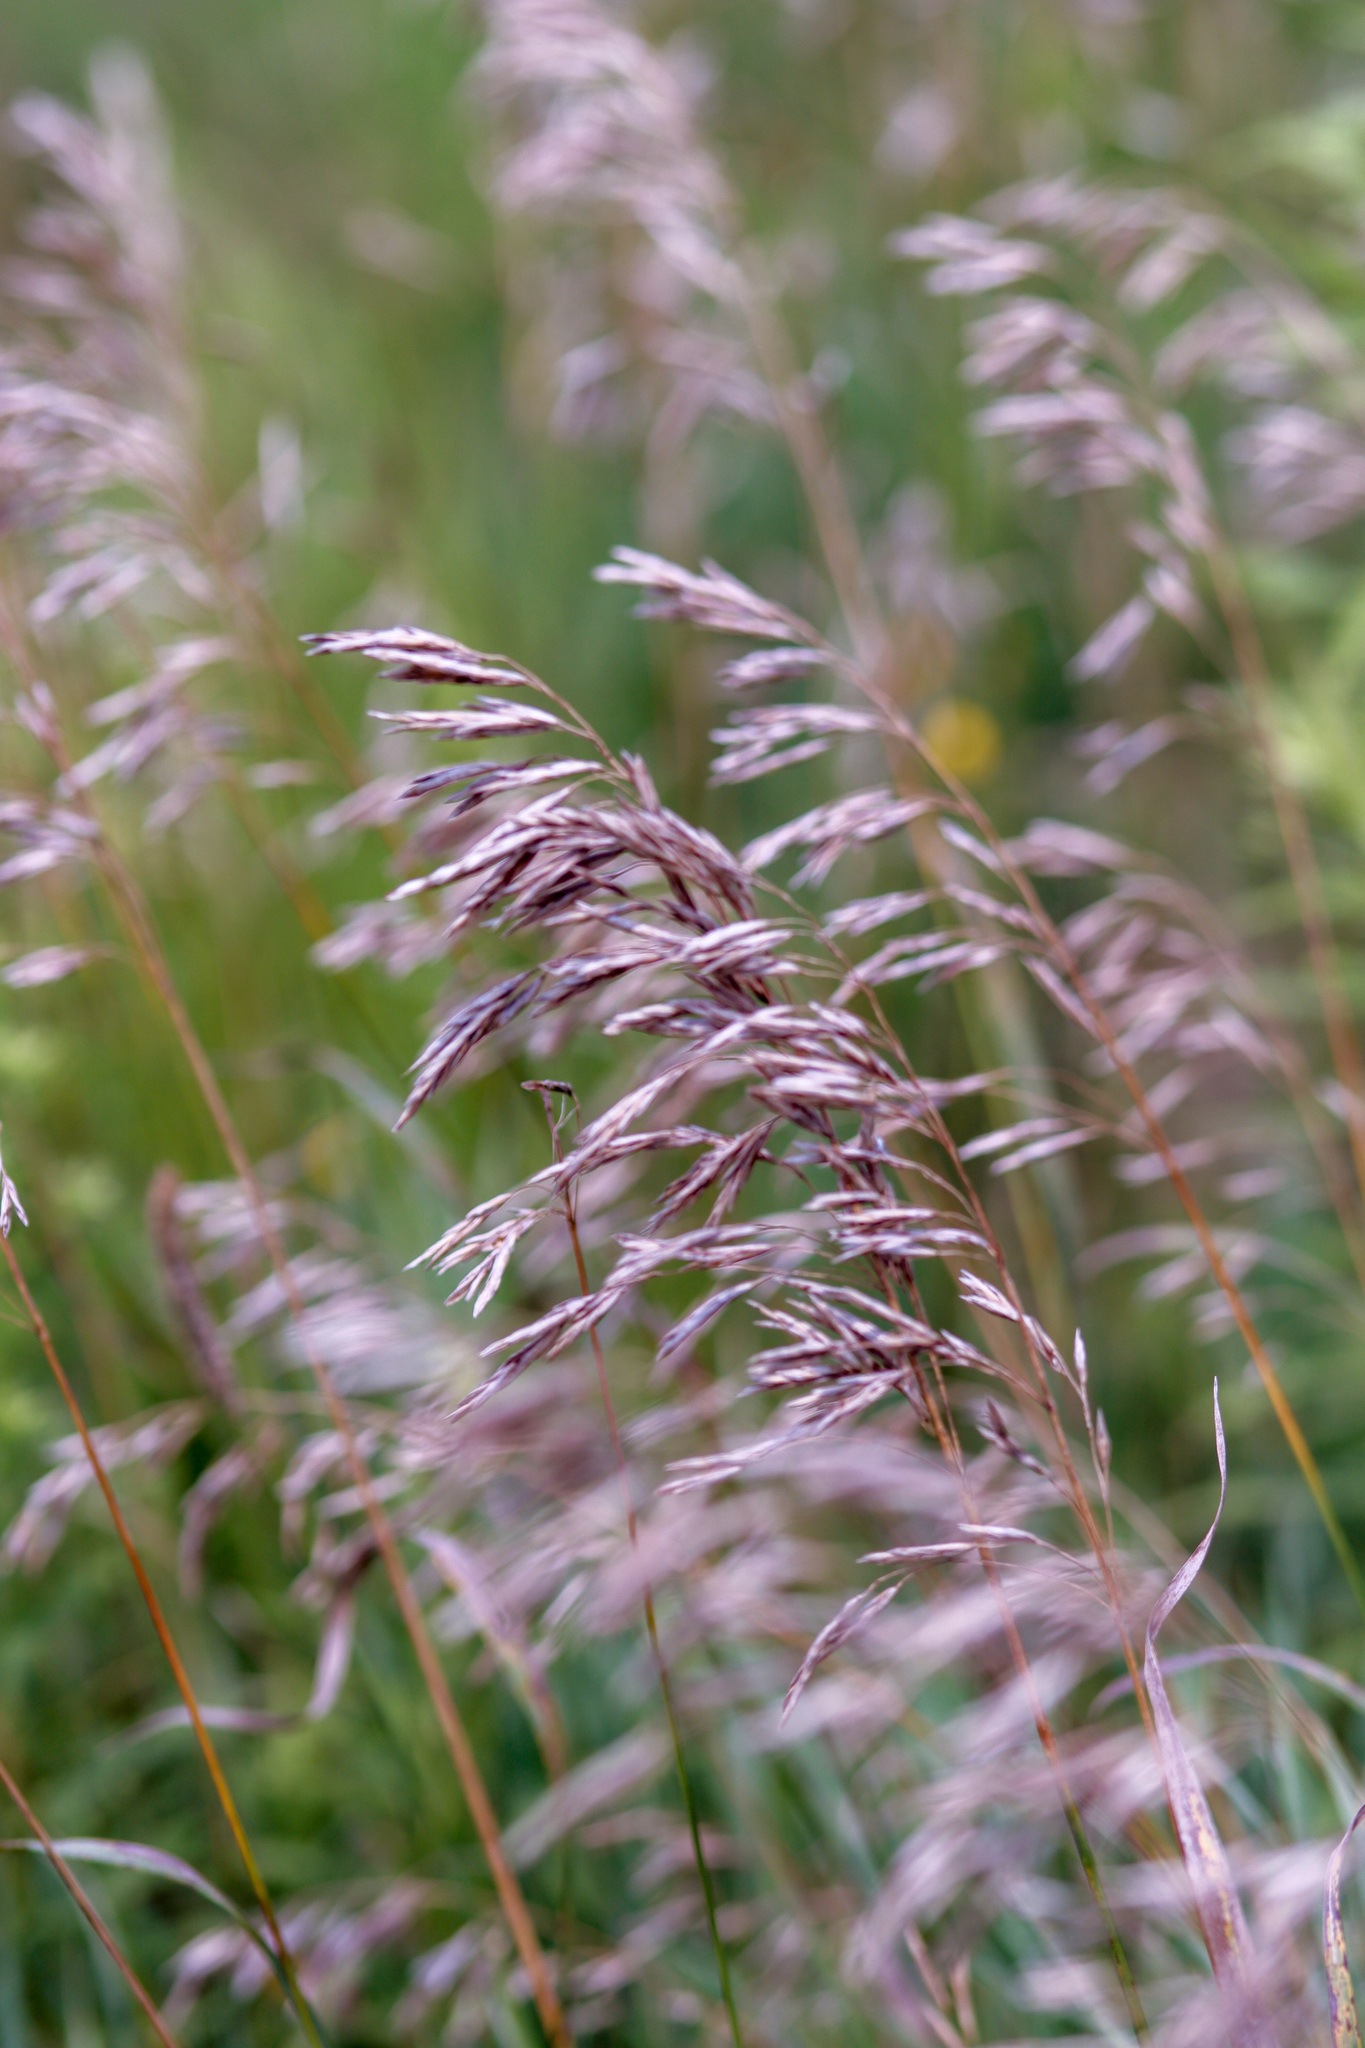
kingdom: Plantae
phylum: Tracheophyta
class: Liliopsida
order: Poales
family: Poaceae
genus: Bromus
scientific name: Bromus inermis
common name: Smooth brome
